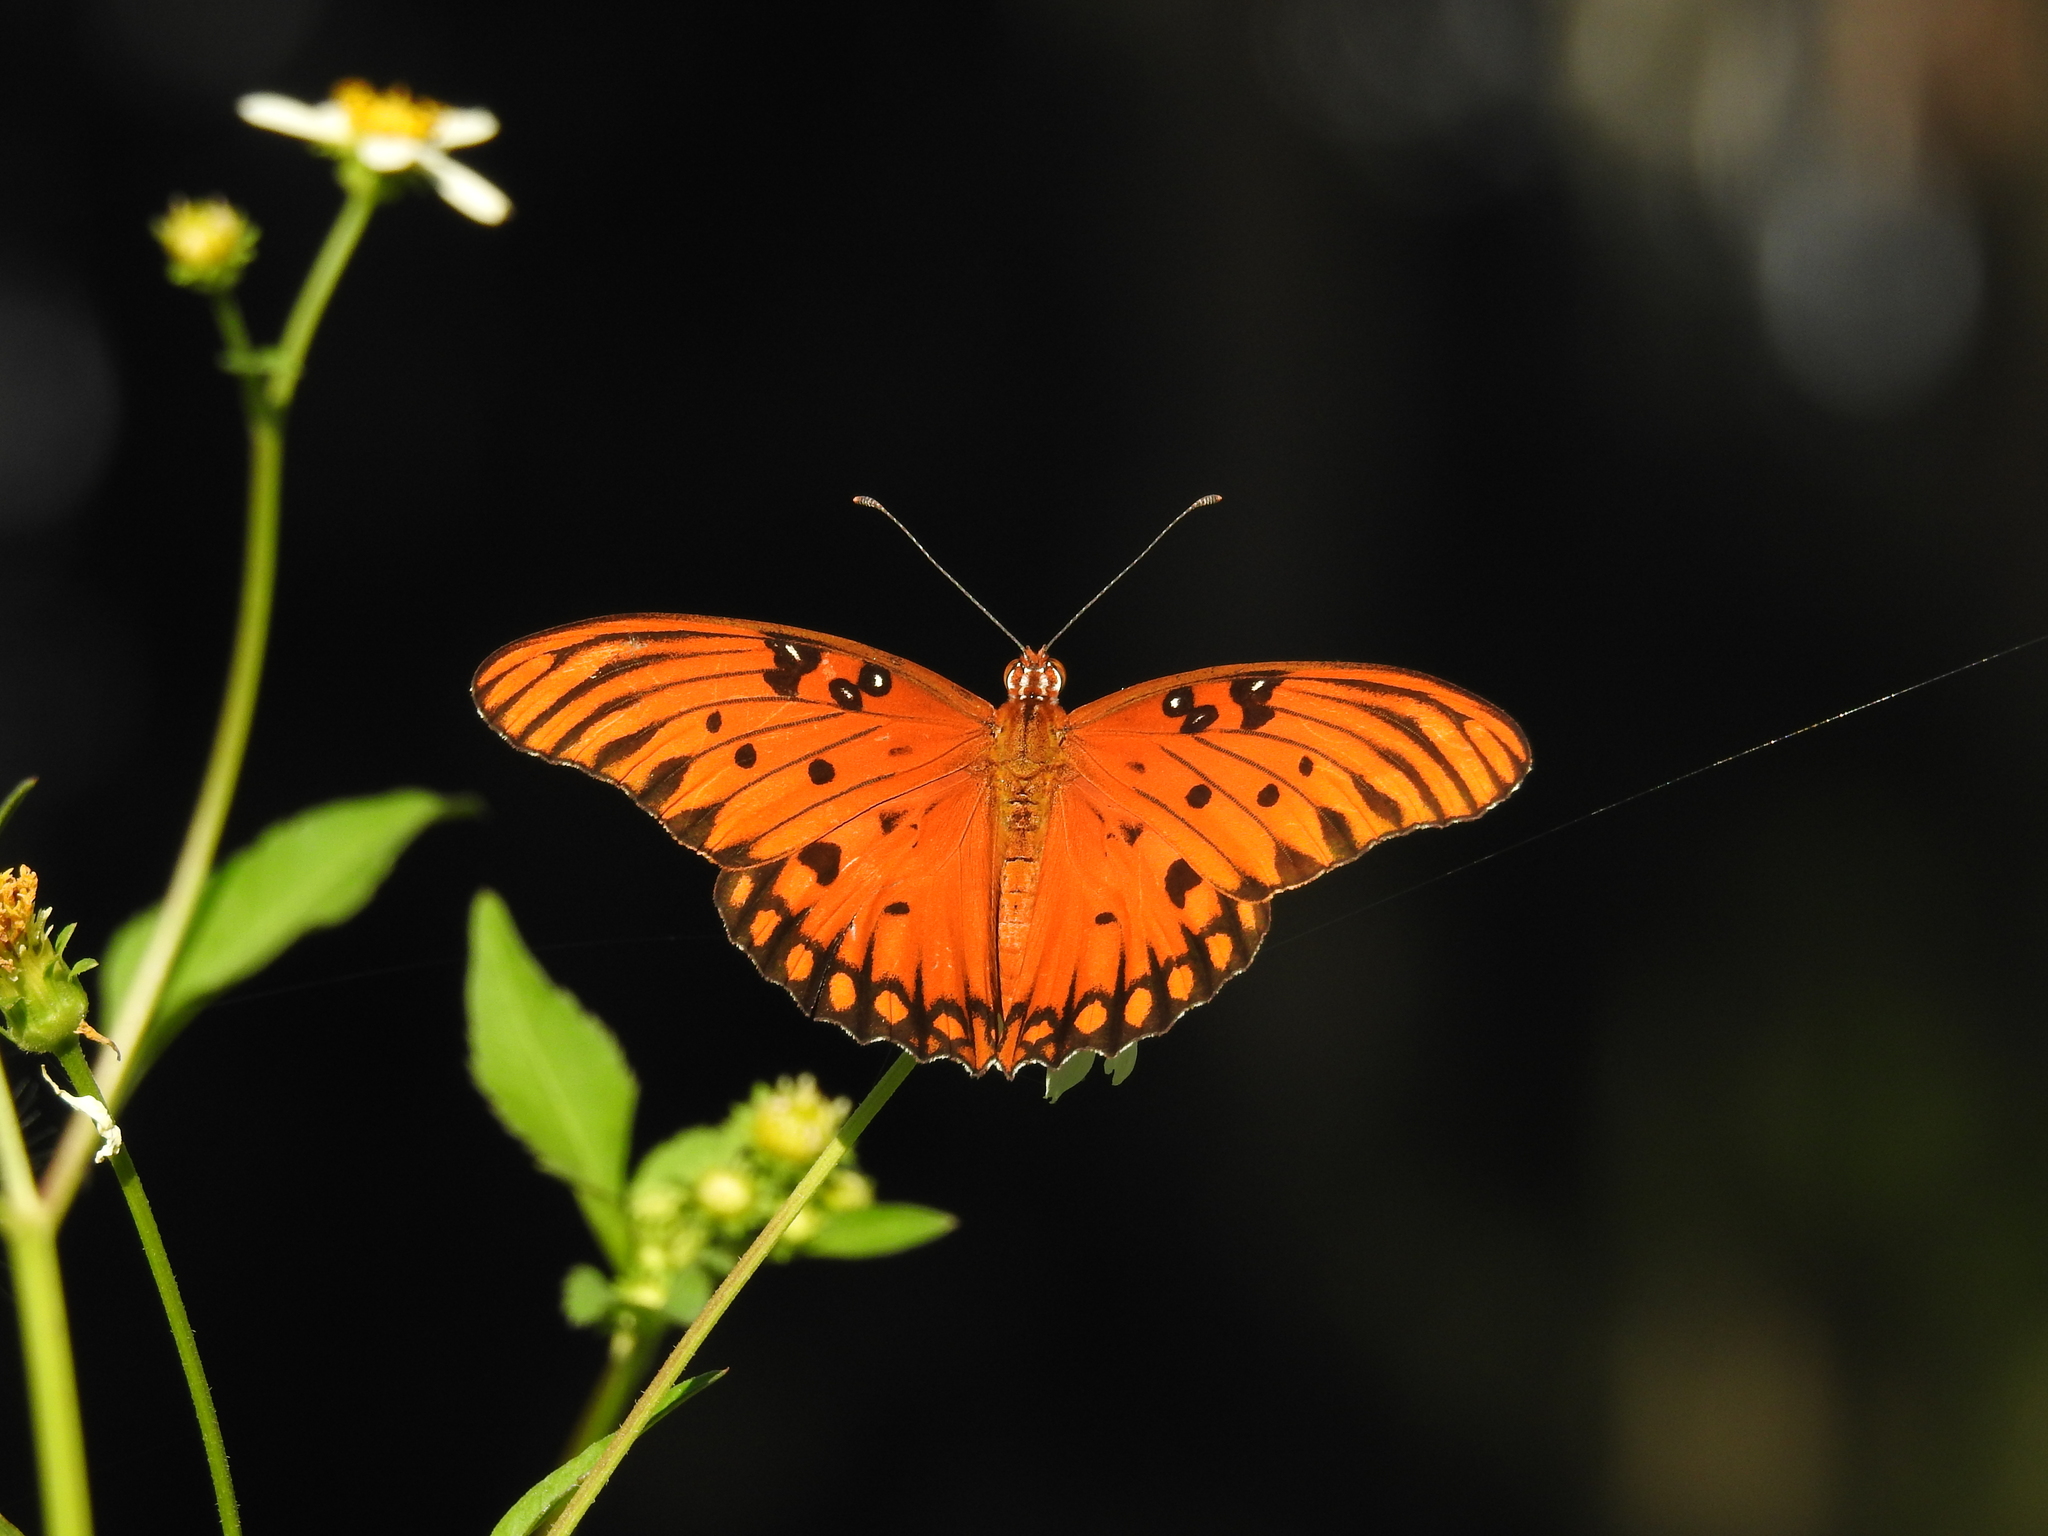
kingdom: Animalia
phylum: Arthropoda
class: Insecta
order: Lepidoptera
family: Nymphalidae
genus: Dione
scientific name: Dione vanillae
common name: Gulf fritillary
